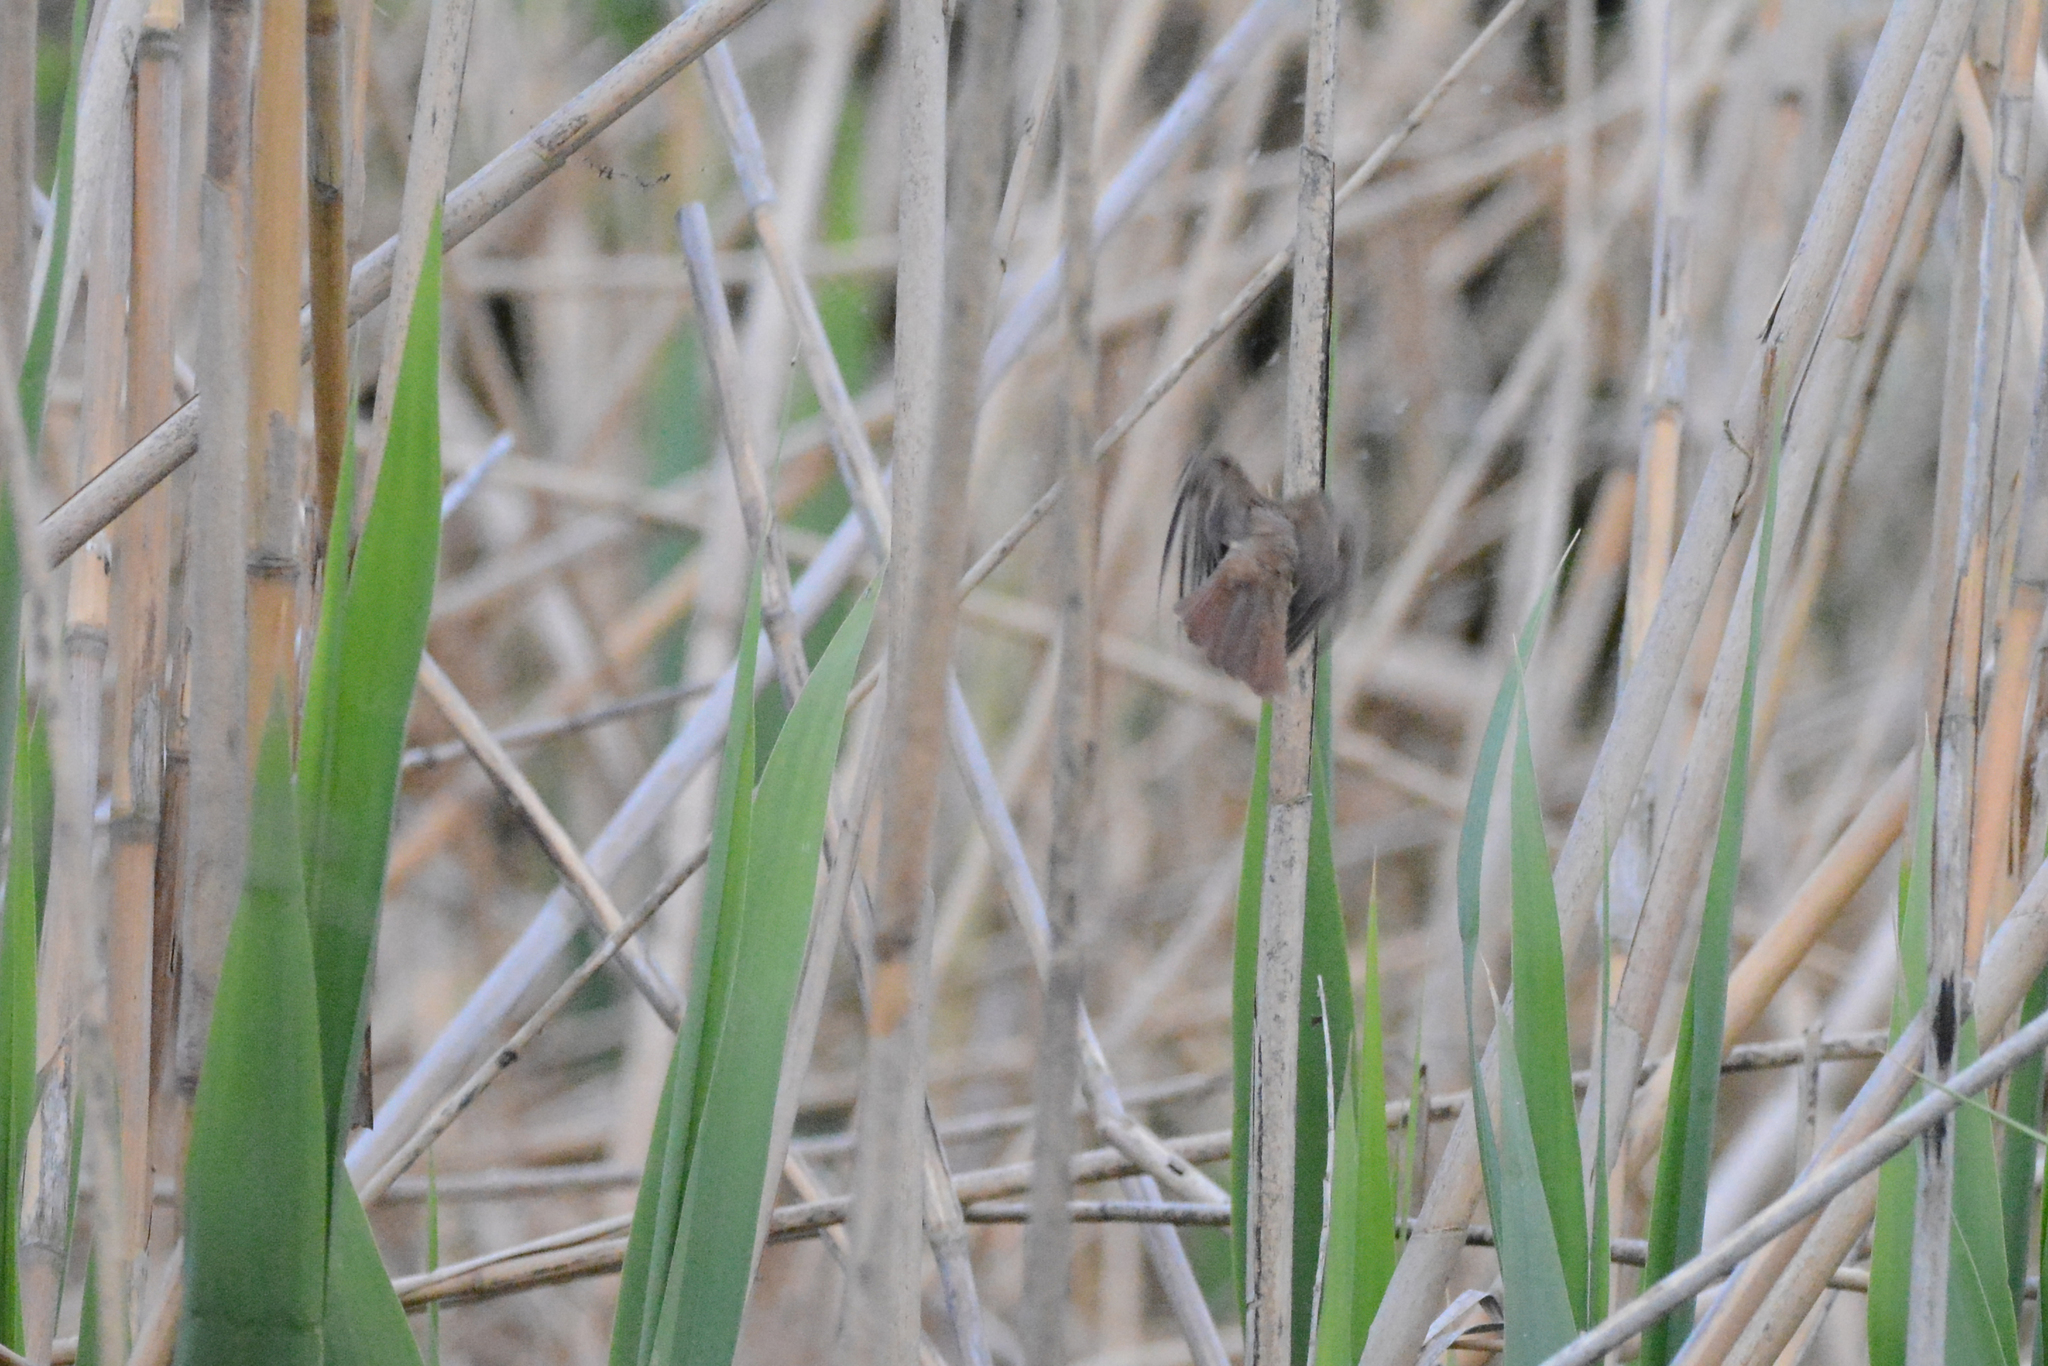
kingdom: Animalia
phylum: Chordata
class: Aves
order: Passeriformes
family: Muscicapidae
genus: Luscinia
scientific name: Luscinia megarhynchos
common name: Common nightingale
